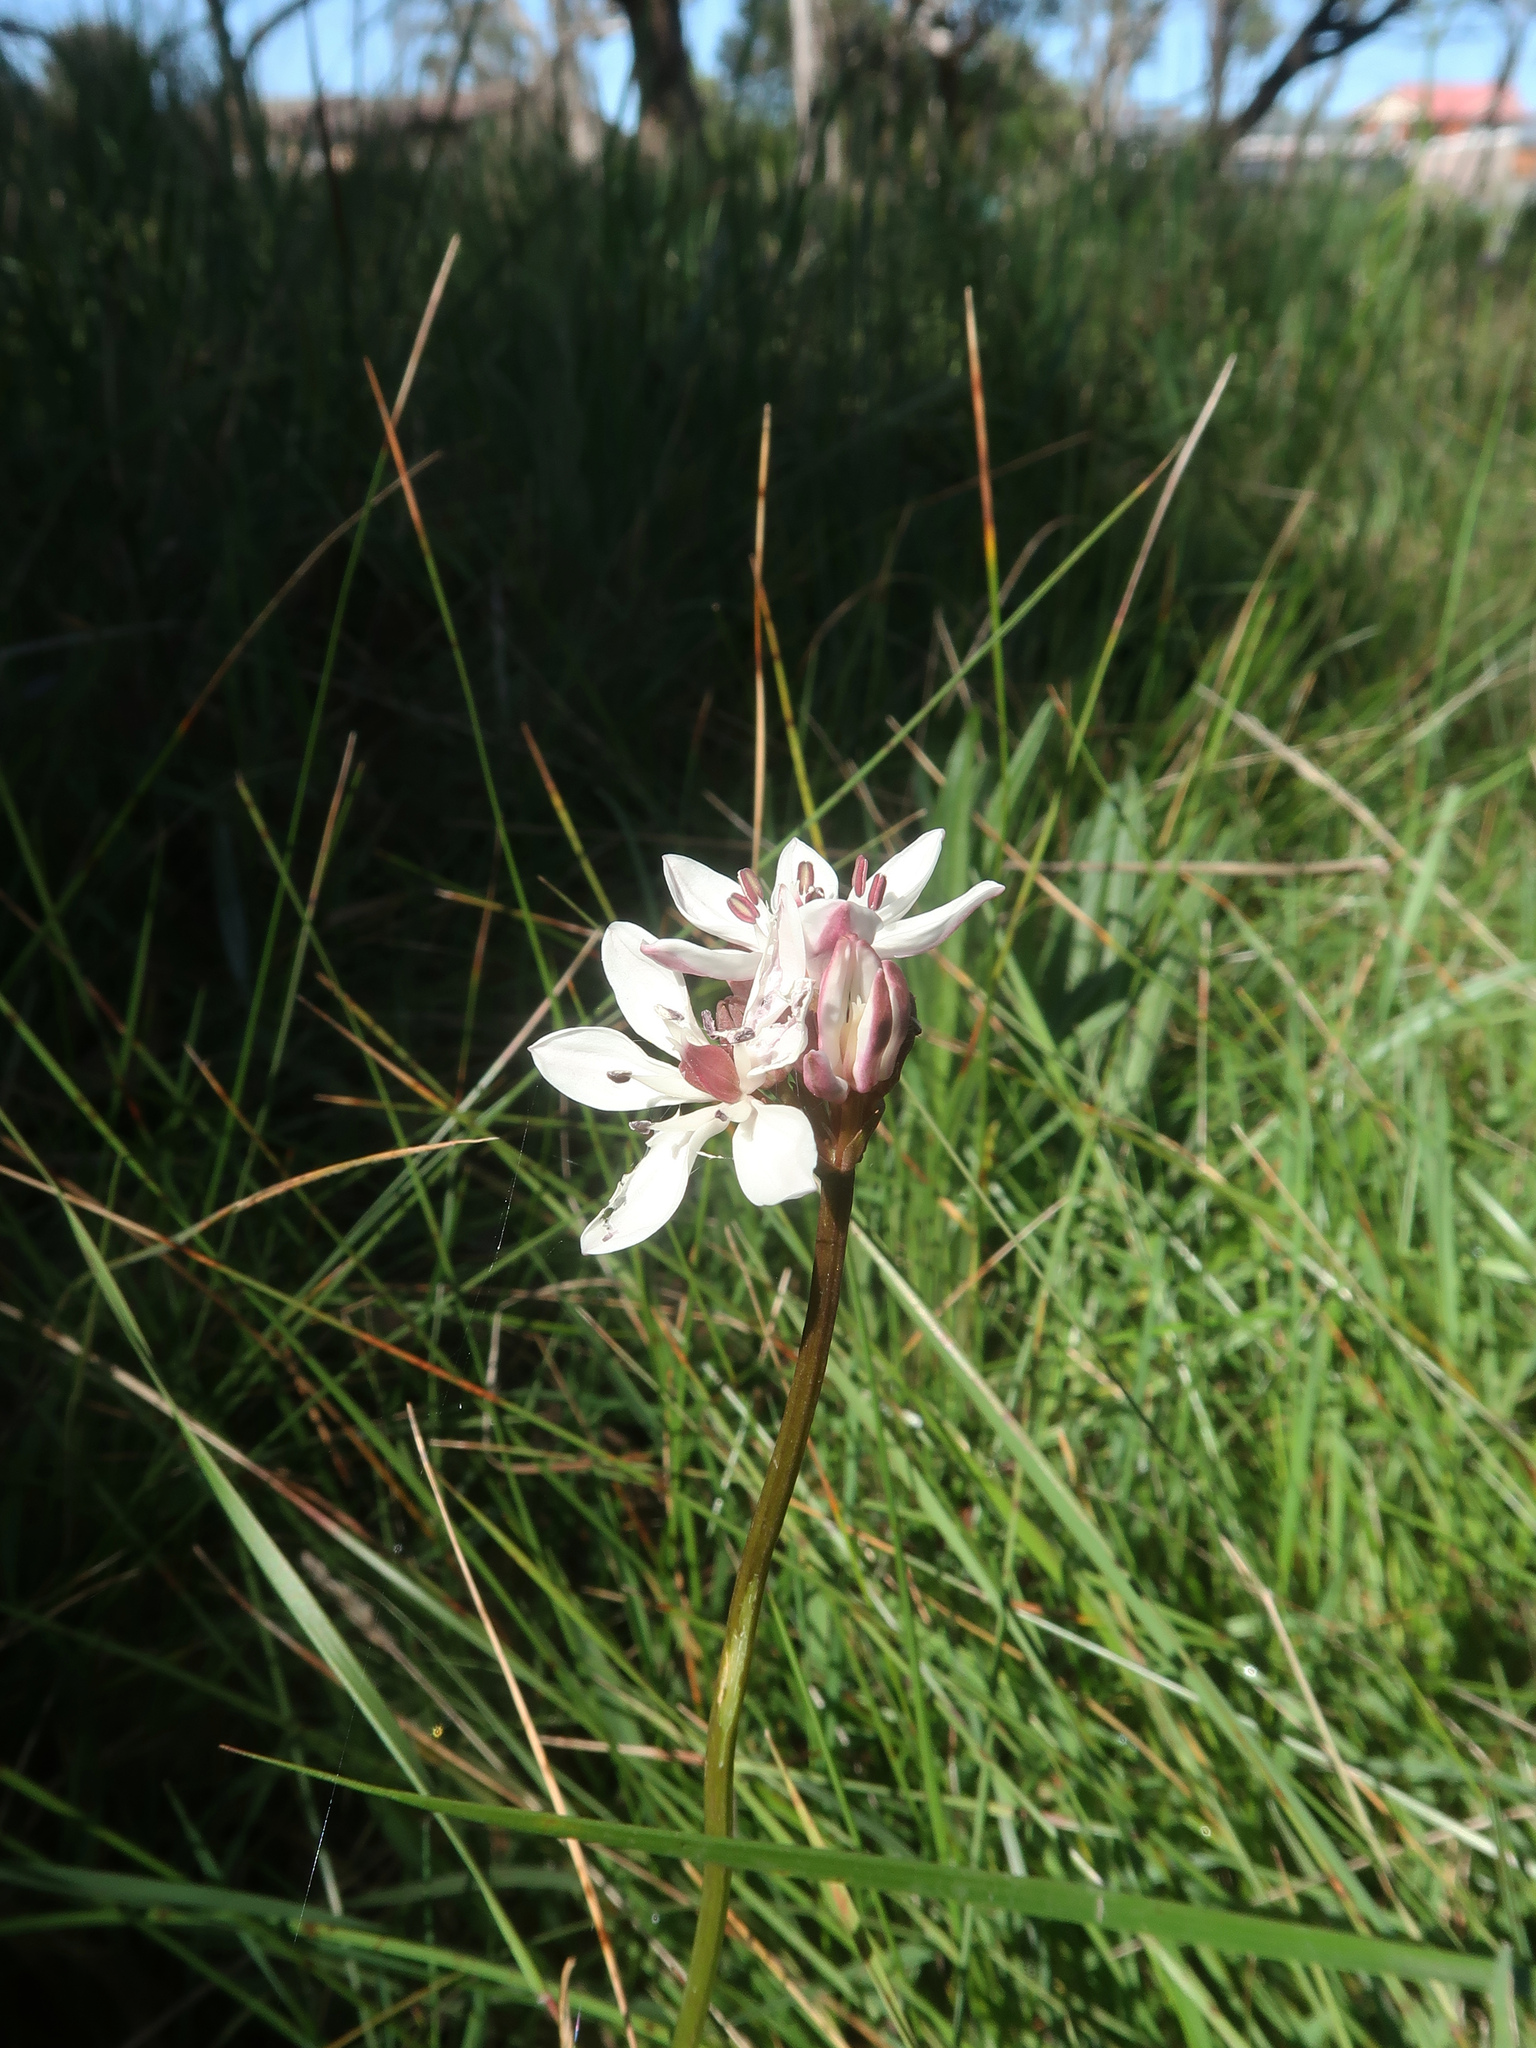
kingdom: Plantae
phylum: Tracheophyta
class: Liliopsida
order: Liliales
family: Colchicaceae
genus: Burchardia
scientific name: Burchardia umbellata
